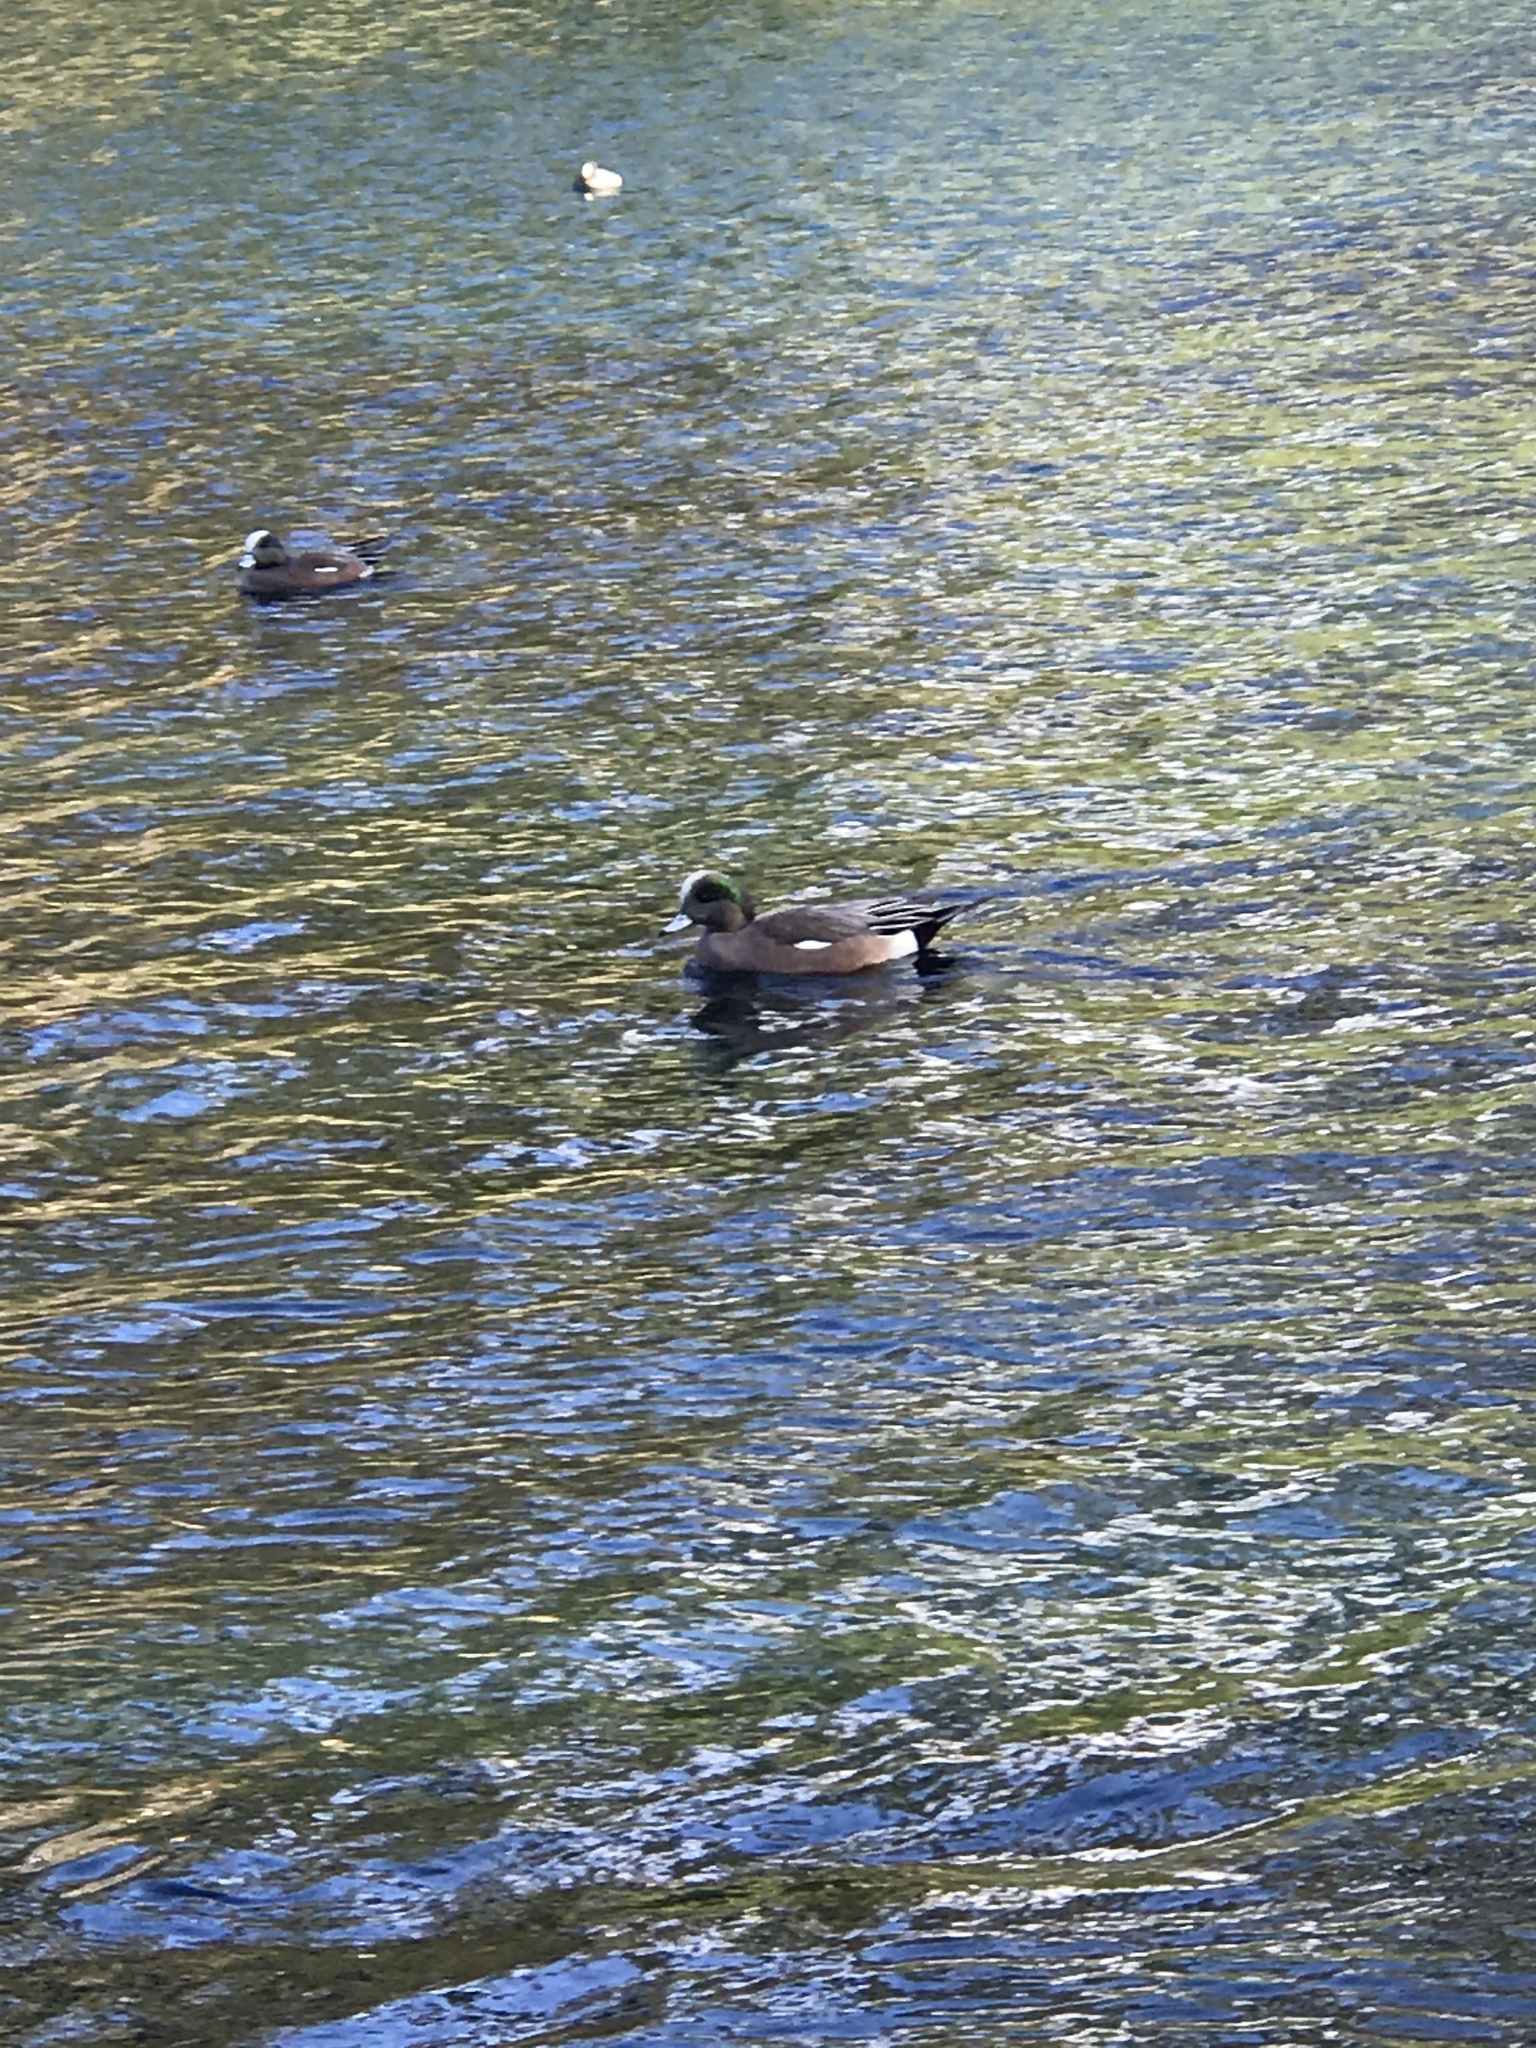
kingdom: Animalia
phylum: Chordata
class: Aves
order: Anseriformes
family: Anatidae
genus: Mareca
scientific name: Mareca americana
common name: American wigeon
